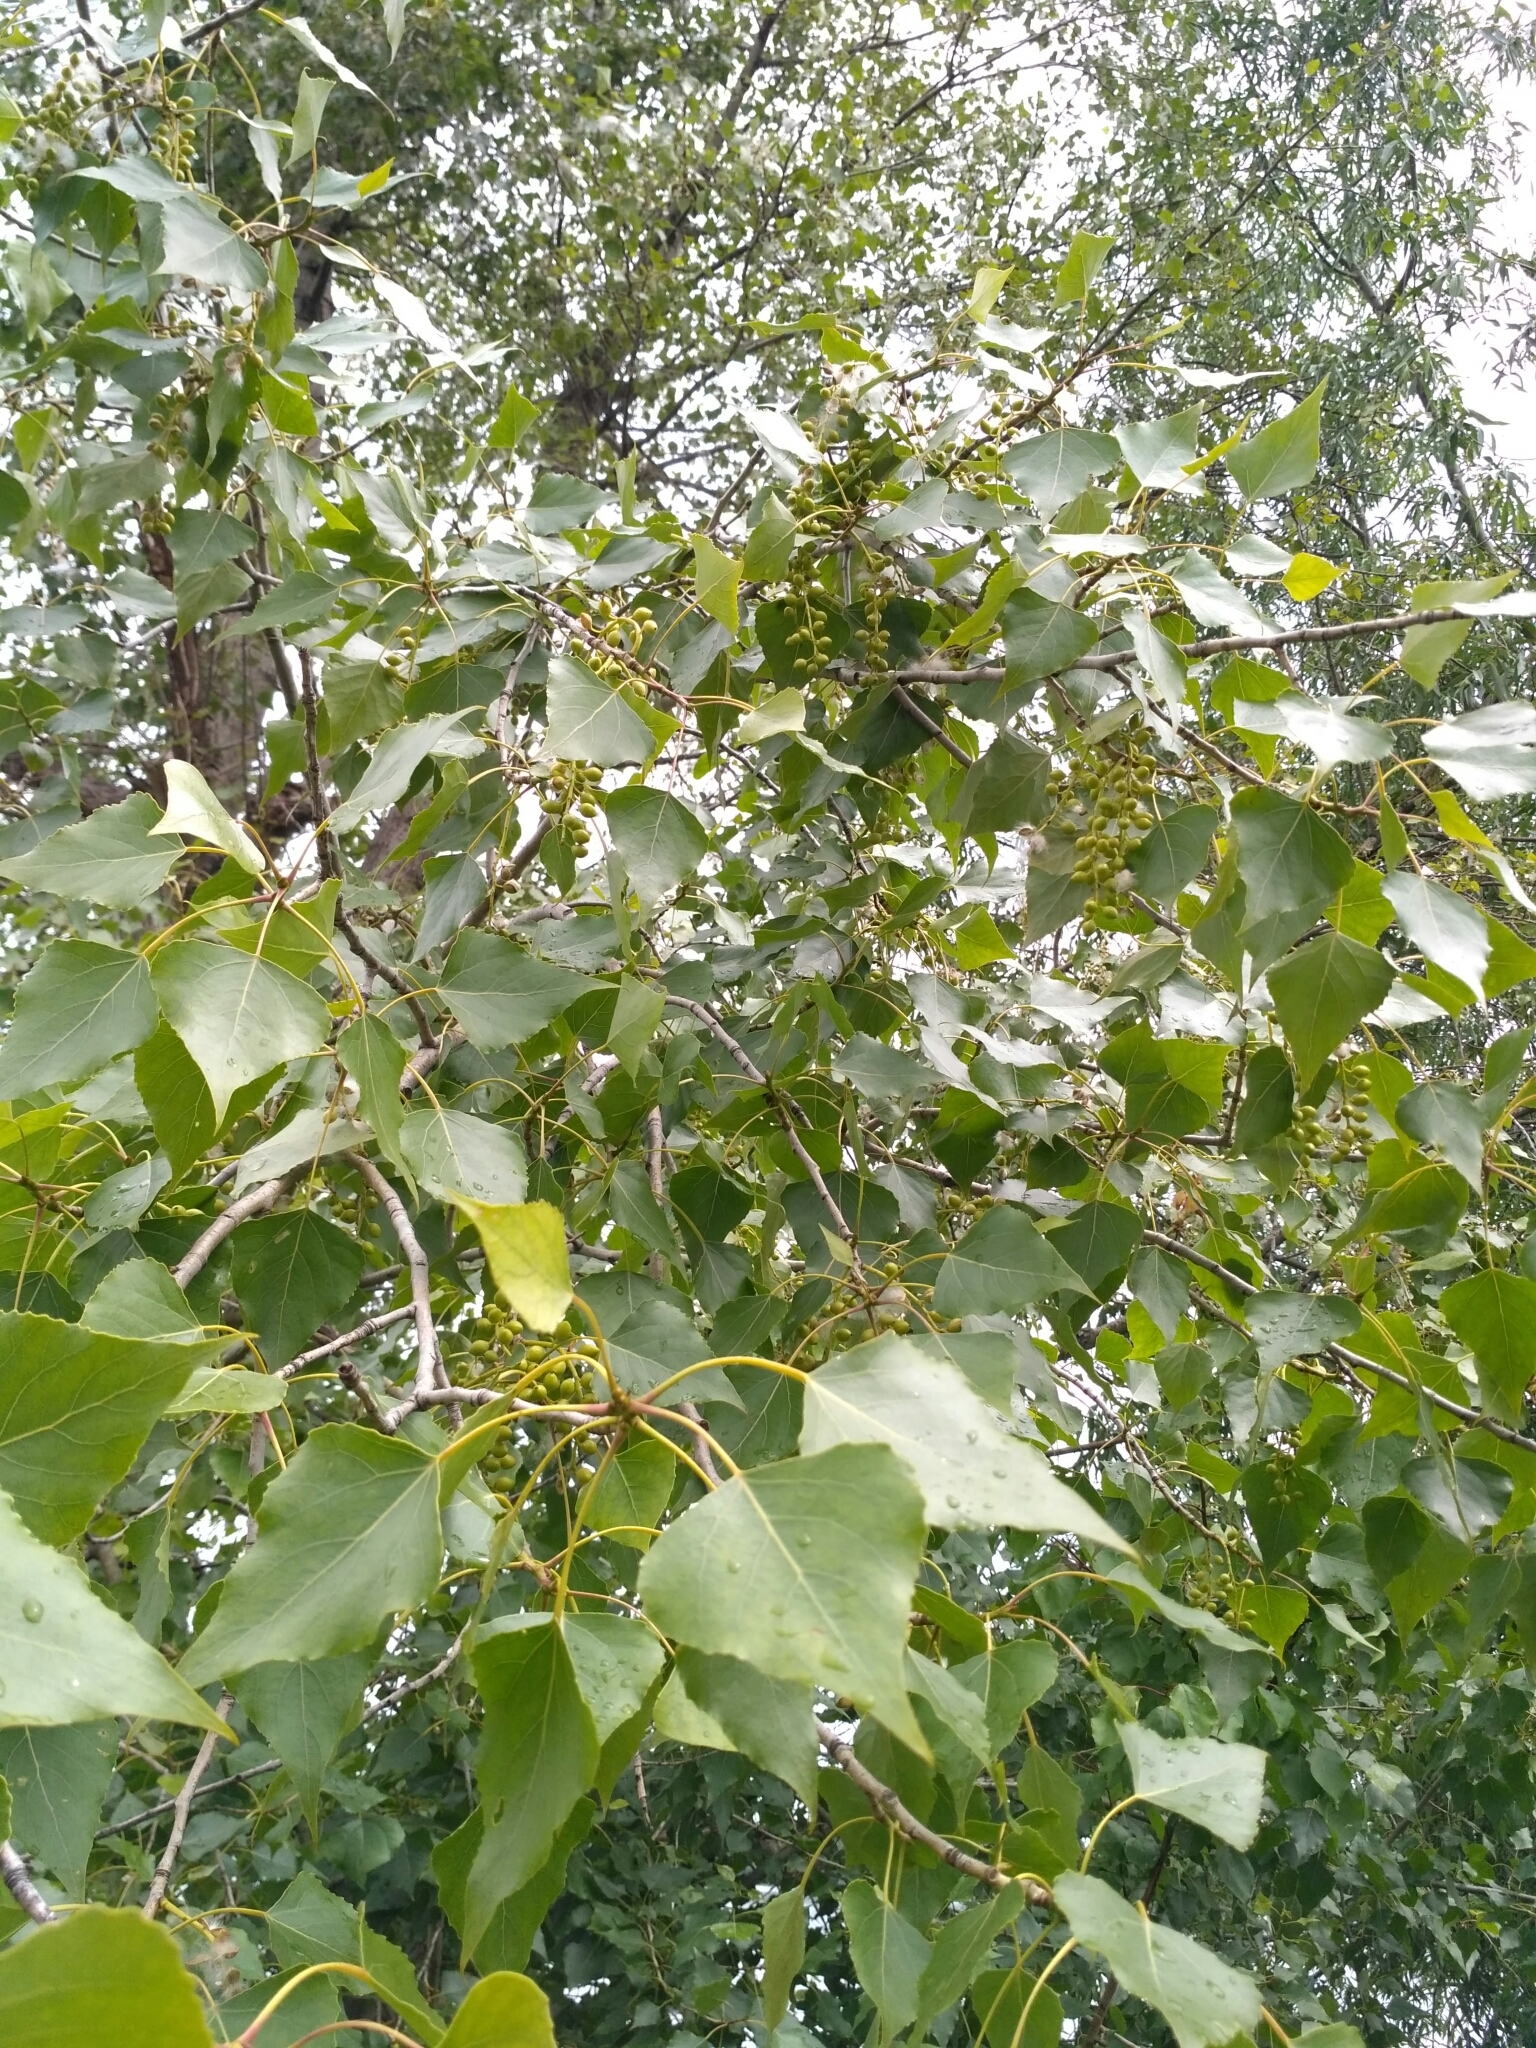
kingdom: Plantae
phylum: Tracheophyta
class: Magnoliopsida
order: Malpighiales
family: Salicaceae
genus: Populus
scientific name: Populus nigra
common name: Black poplar
